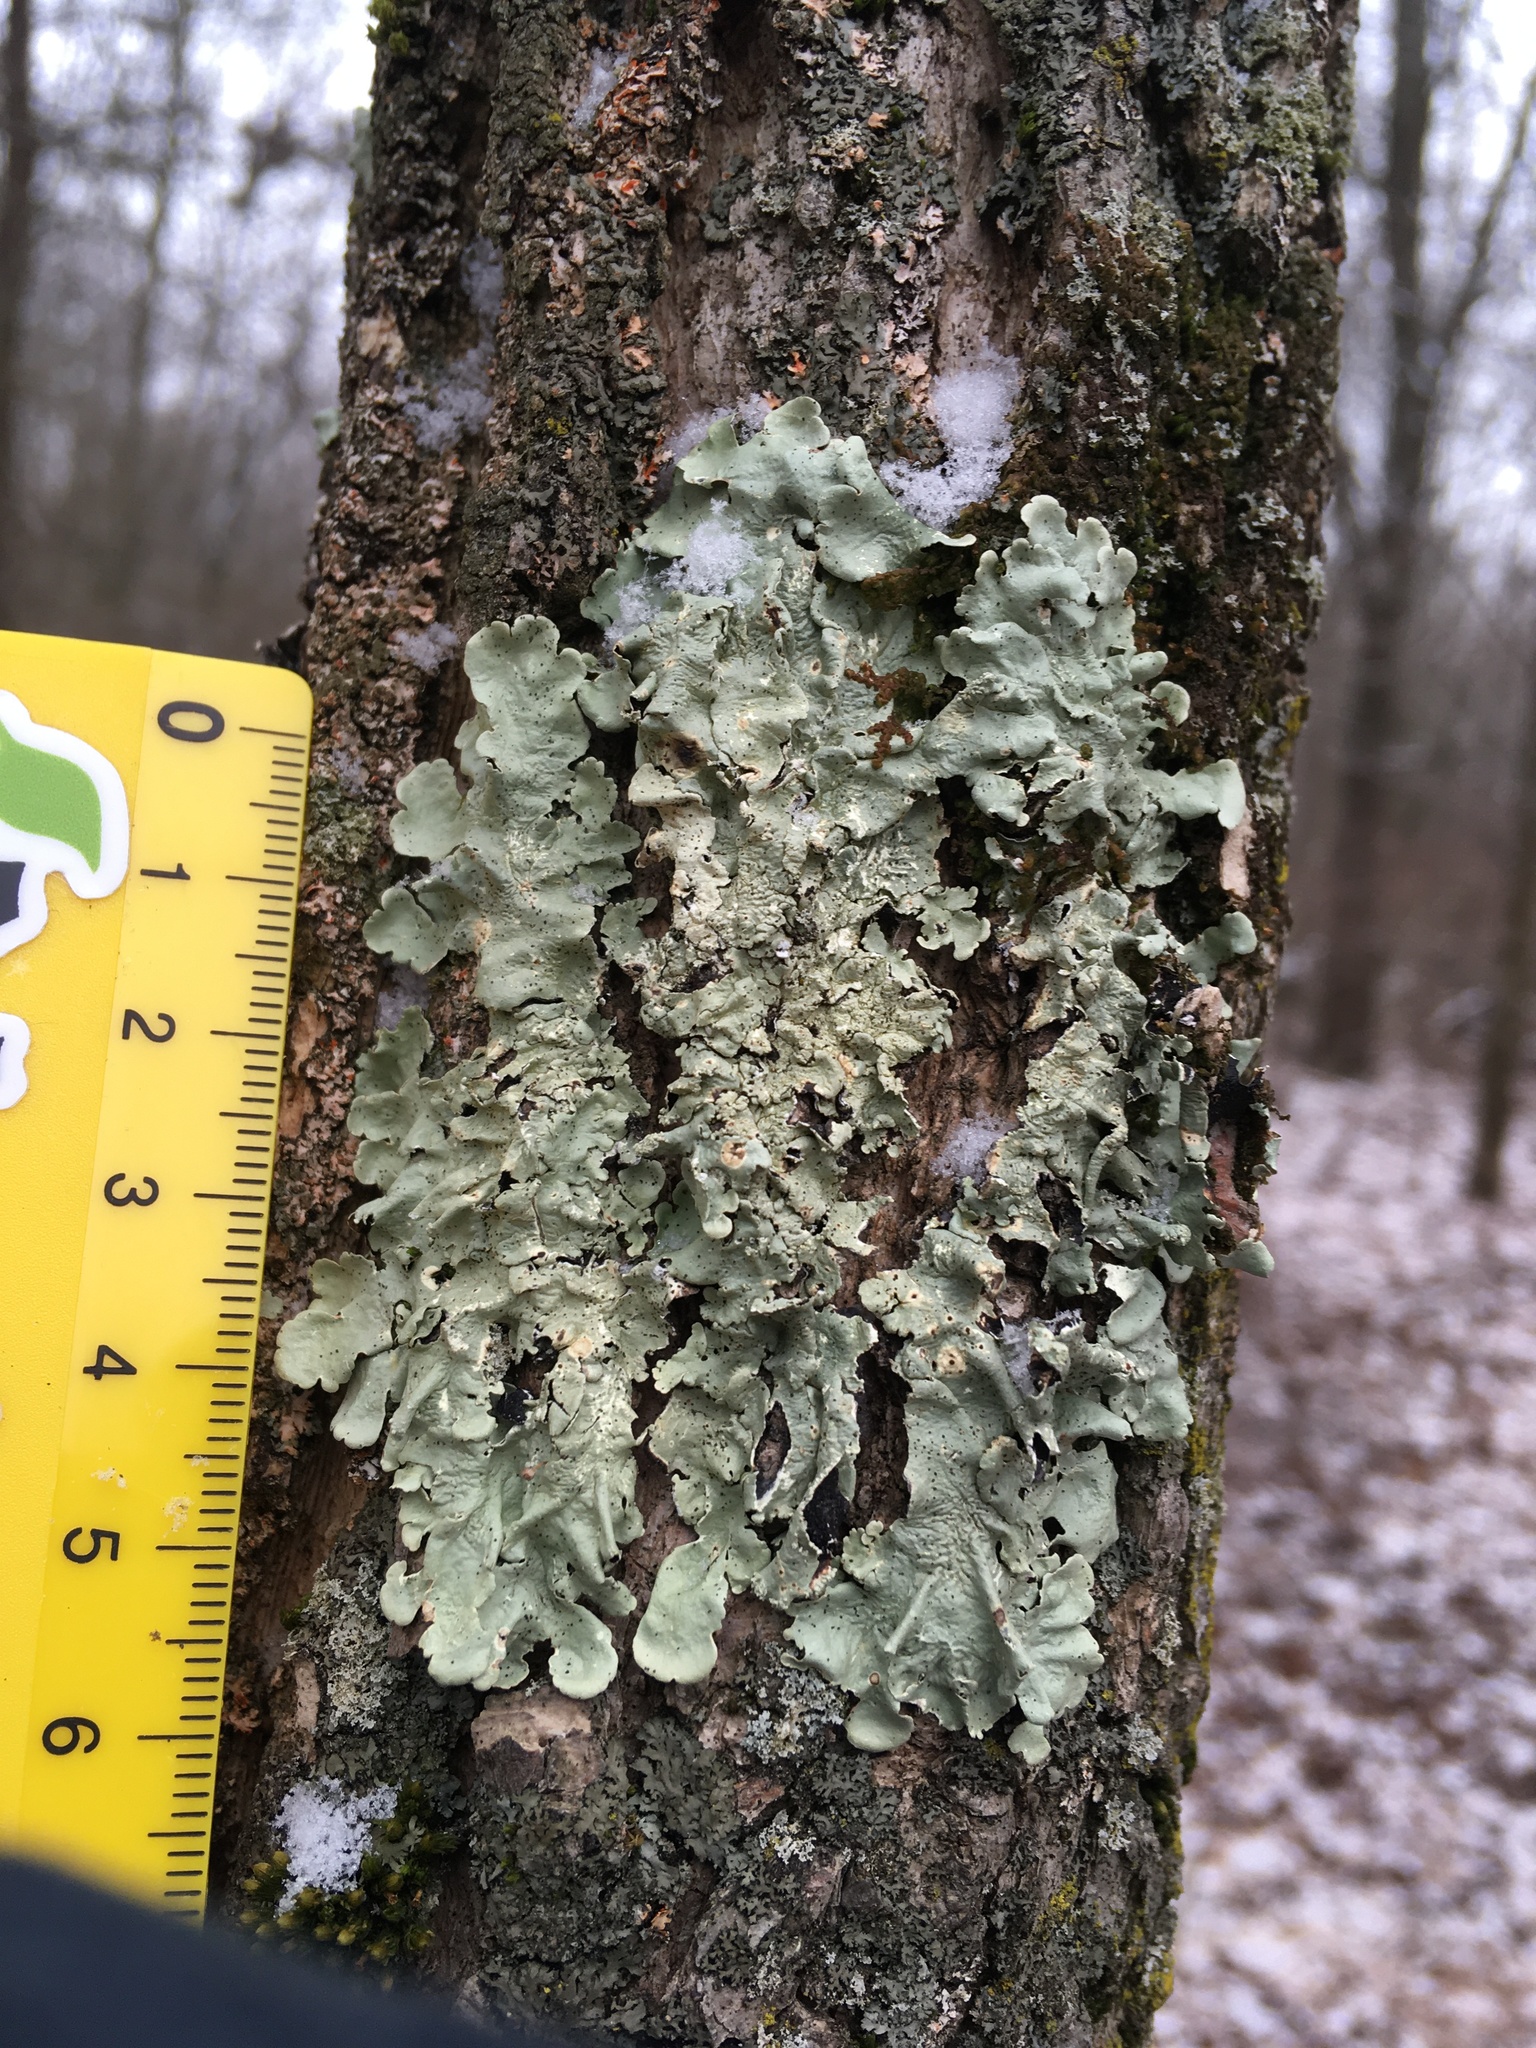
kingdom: Fungi
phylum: Ascomycota
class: Lecanoromycetes
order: Lecanorales
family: Parmeliaceae
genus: Flavoparmelia
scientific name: Flavoparmelia caperata
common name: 40-mile per hour lichen
